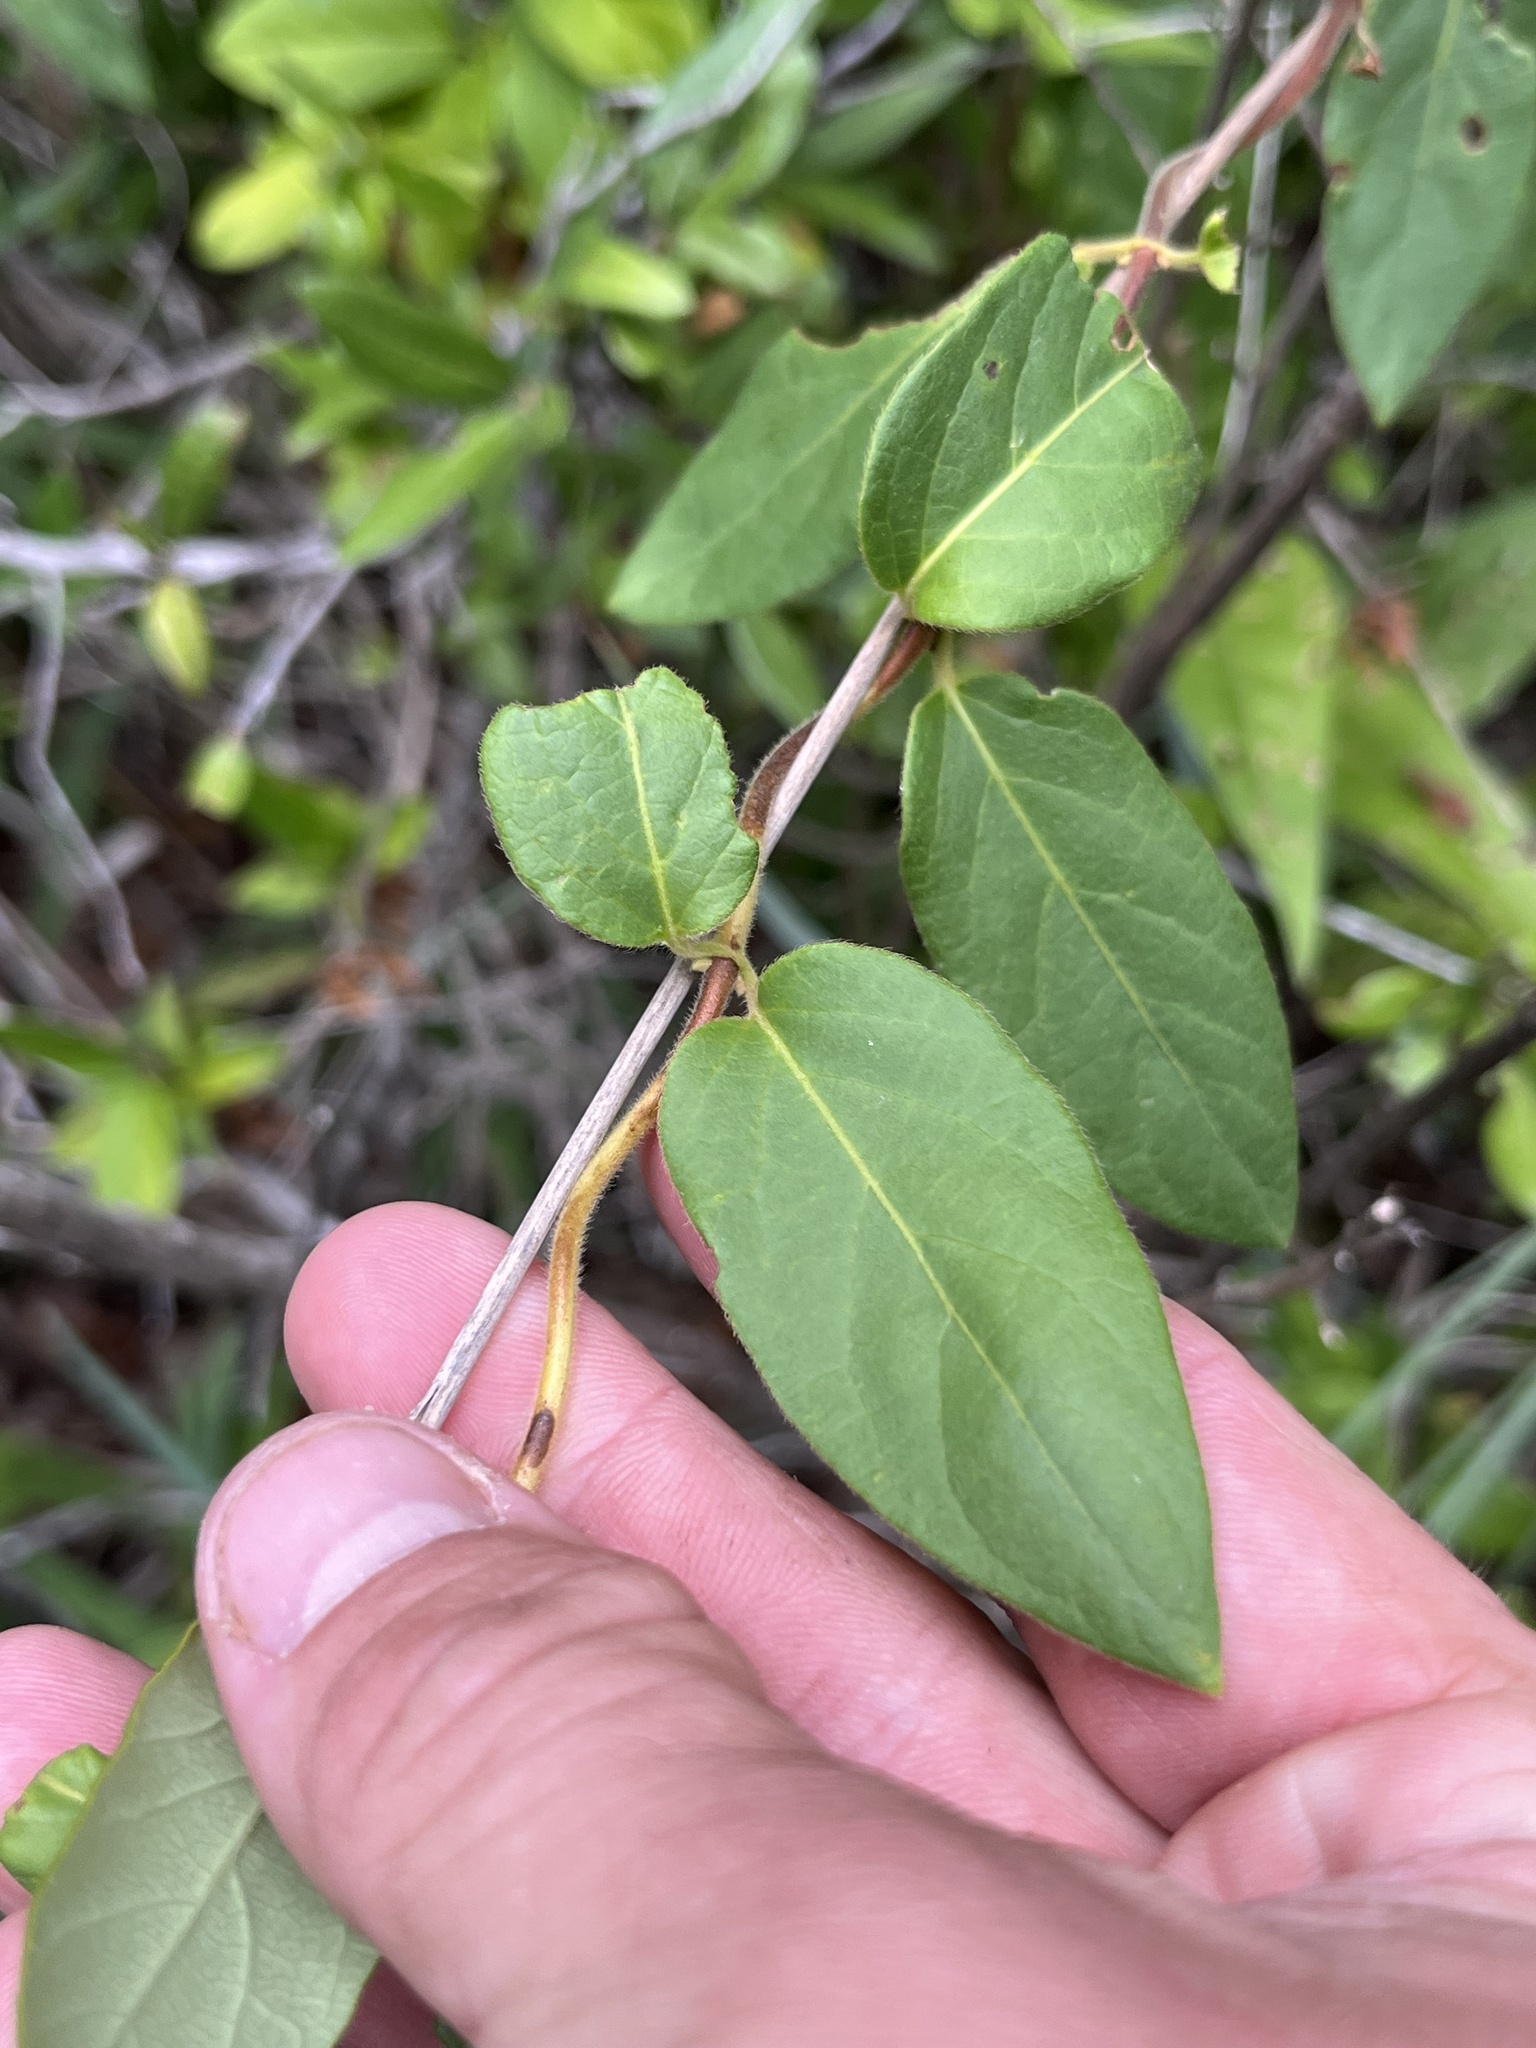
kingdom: Plantae
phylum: Tracheophyta
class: Magnoliopsida
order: Dipsacales
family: Caprifoliaceae
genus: Lonicera
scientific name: Lonicera japonica
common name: Japanese honeysuckle
